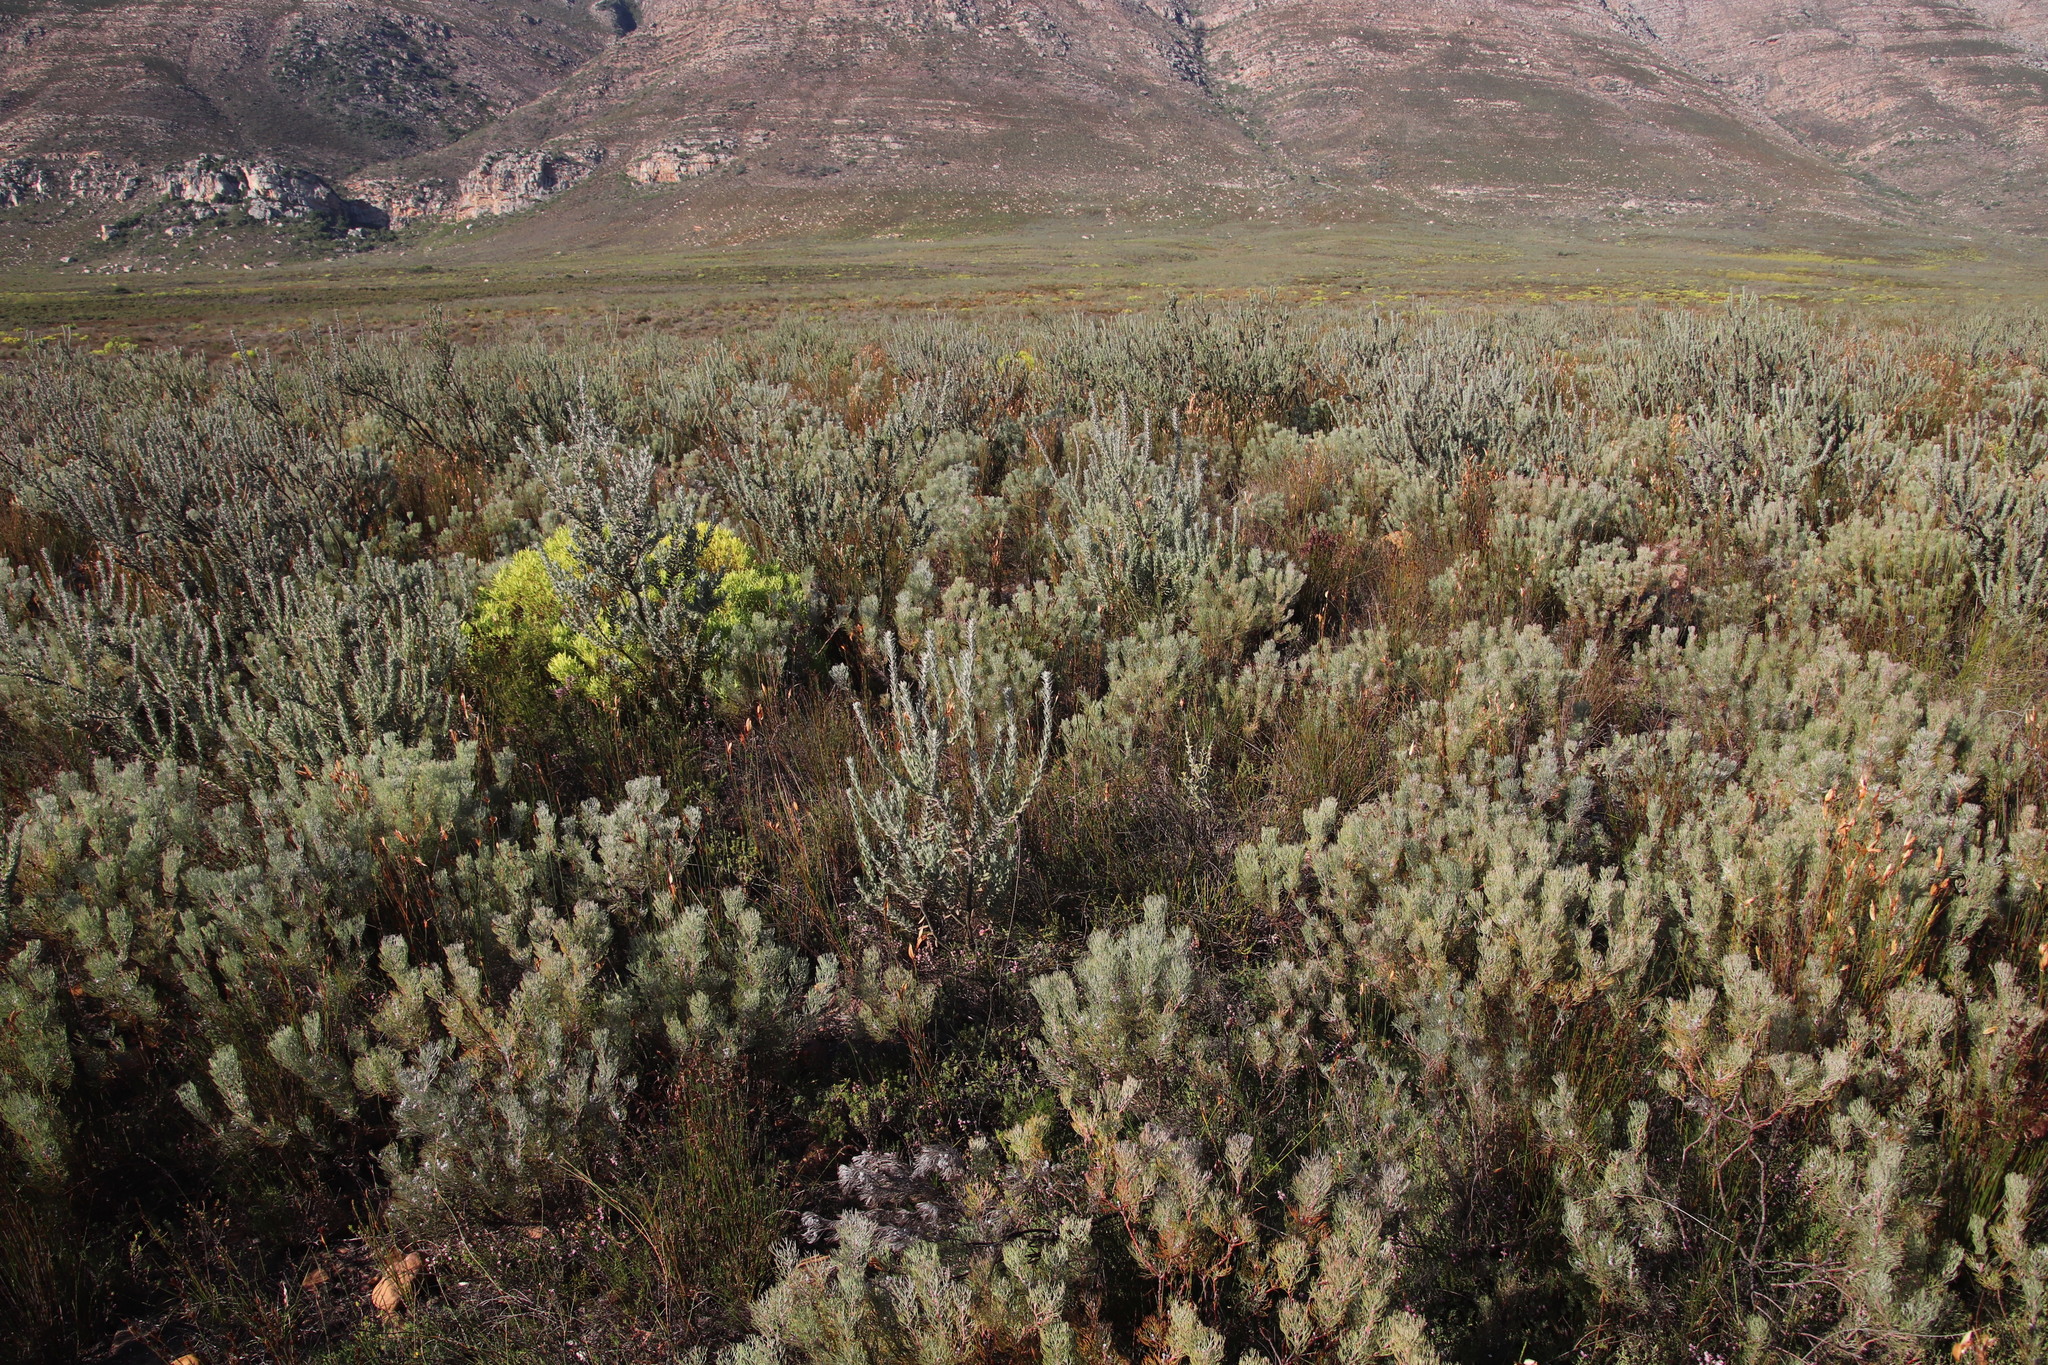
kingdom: Plantae
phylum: Tracheophyta
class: Magnoliopsida
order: Proteales
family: Proteaceae
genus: Serruria
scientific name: Serruria candicans
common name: Shiny spiderhead
